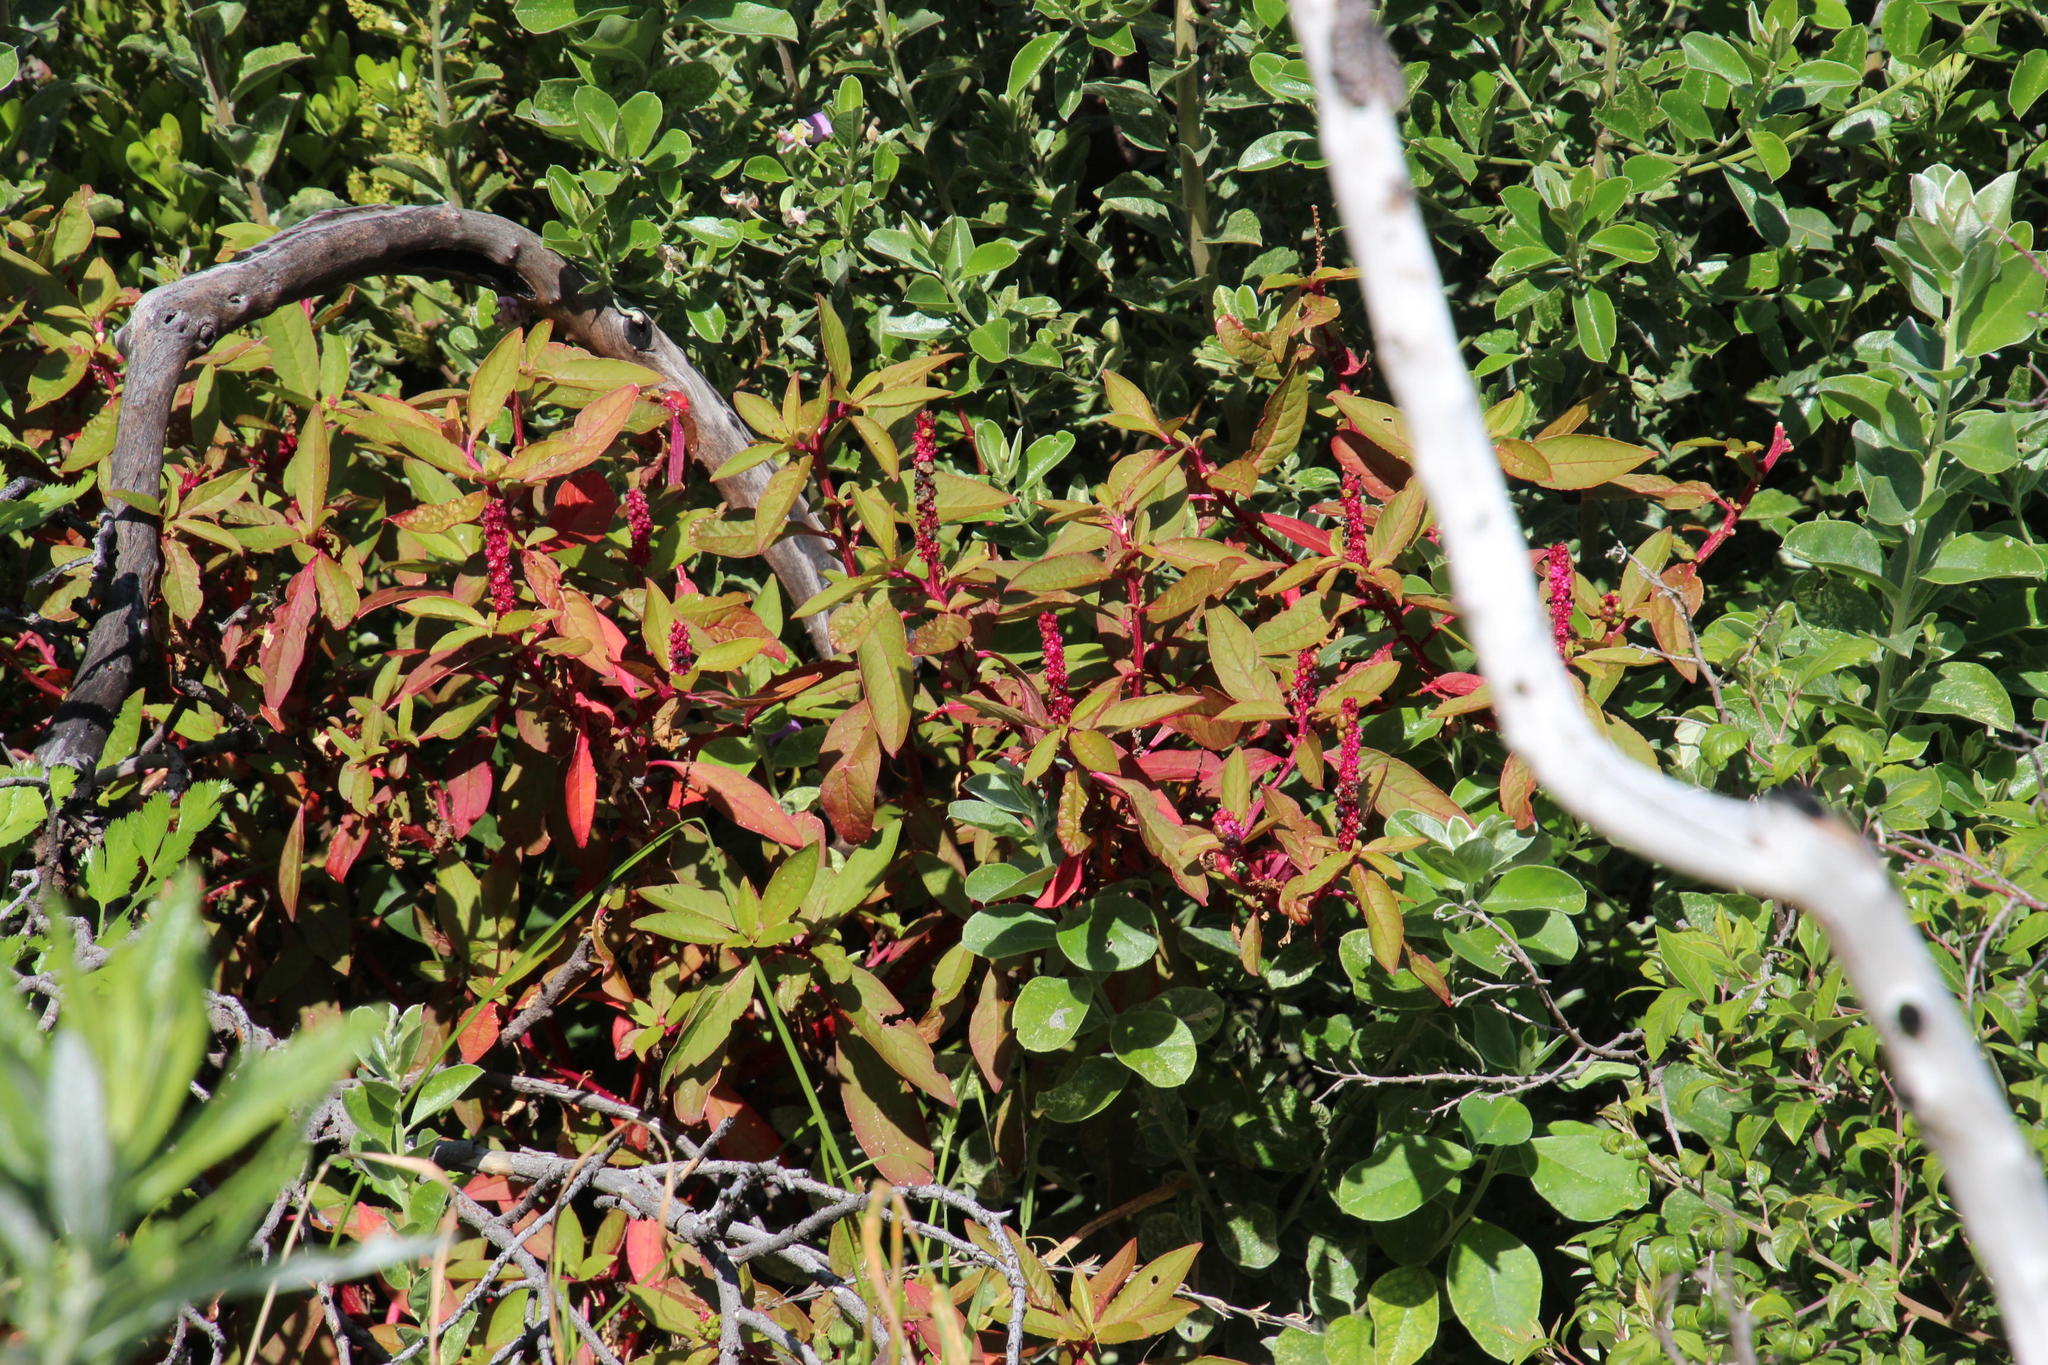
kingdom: Plantae
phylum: Tracheophyta
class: Magnoliopsida
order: Caryophyllales
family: Phytolaccaceae
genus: Phytolacca
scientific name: Phytolacca icosandra
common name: Button pokeweed
